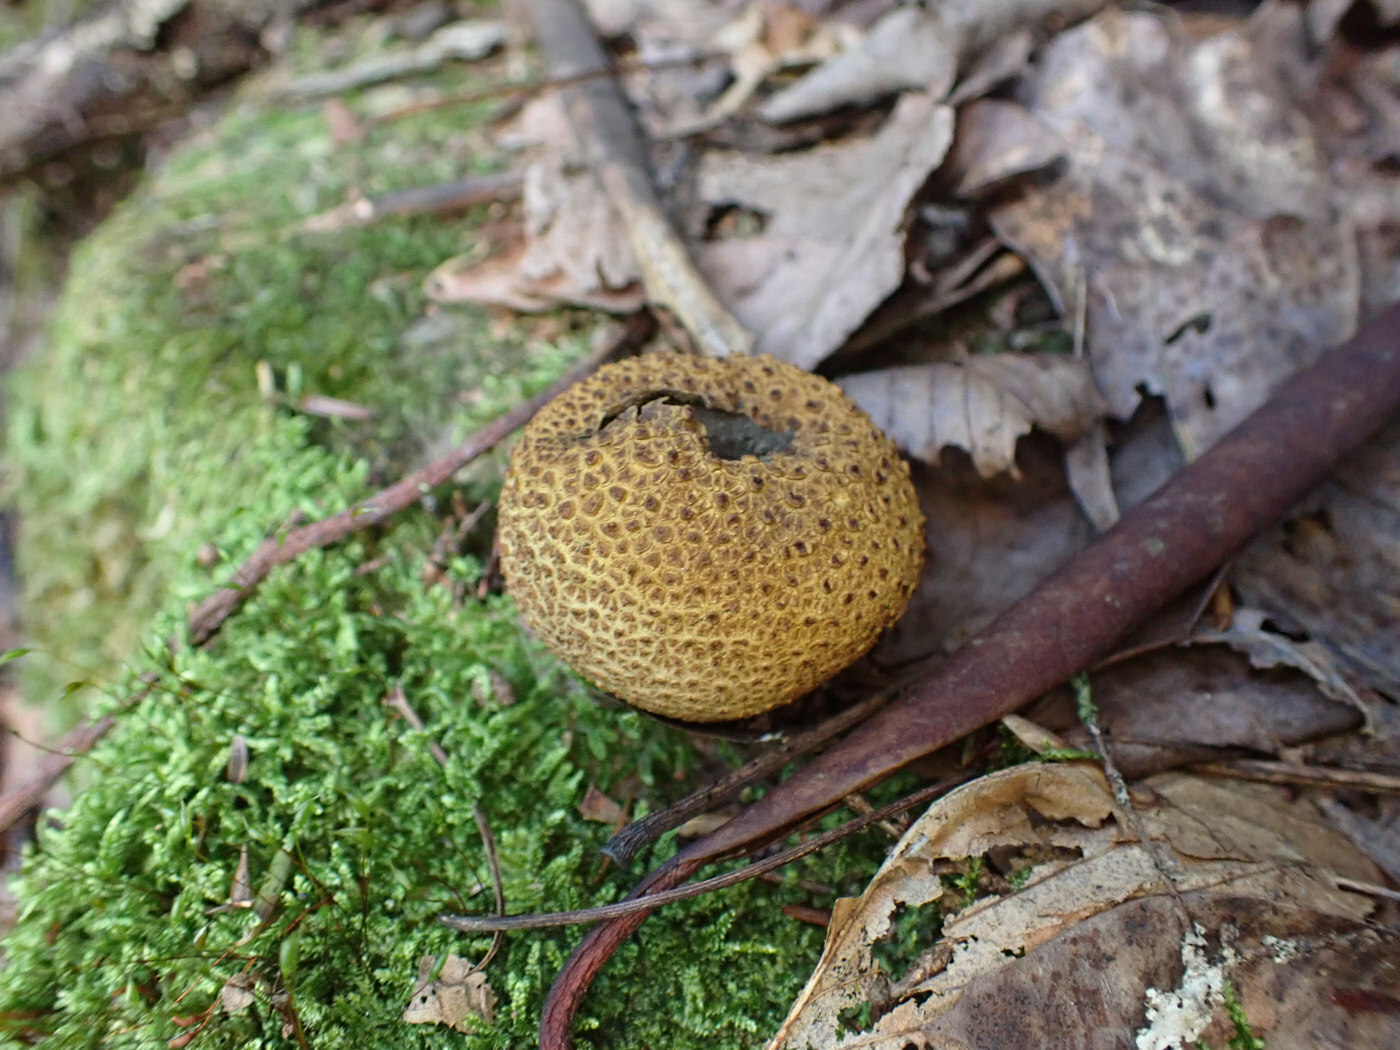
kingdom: Fungi
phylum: Basidiomycota
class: Agaricomycetes
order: Boletales
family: Sclerodermataceae
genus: Scleroderma
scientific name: Scleroderma citrinum
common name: Common earthball
